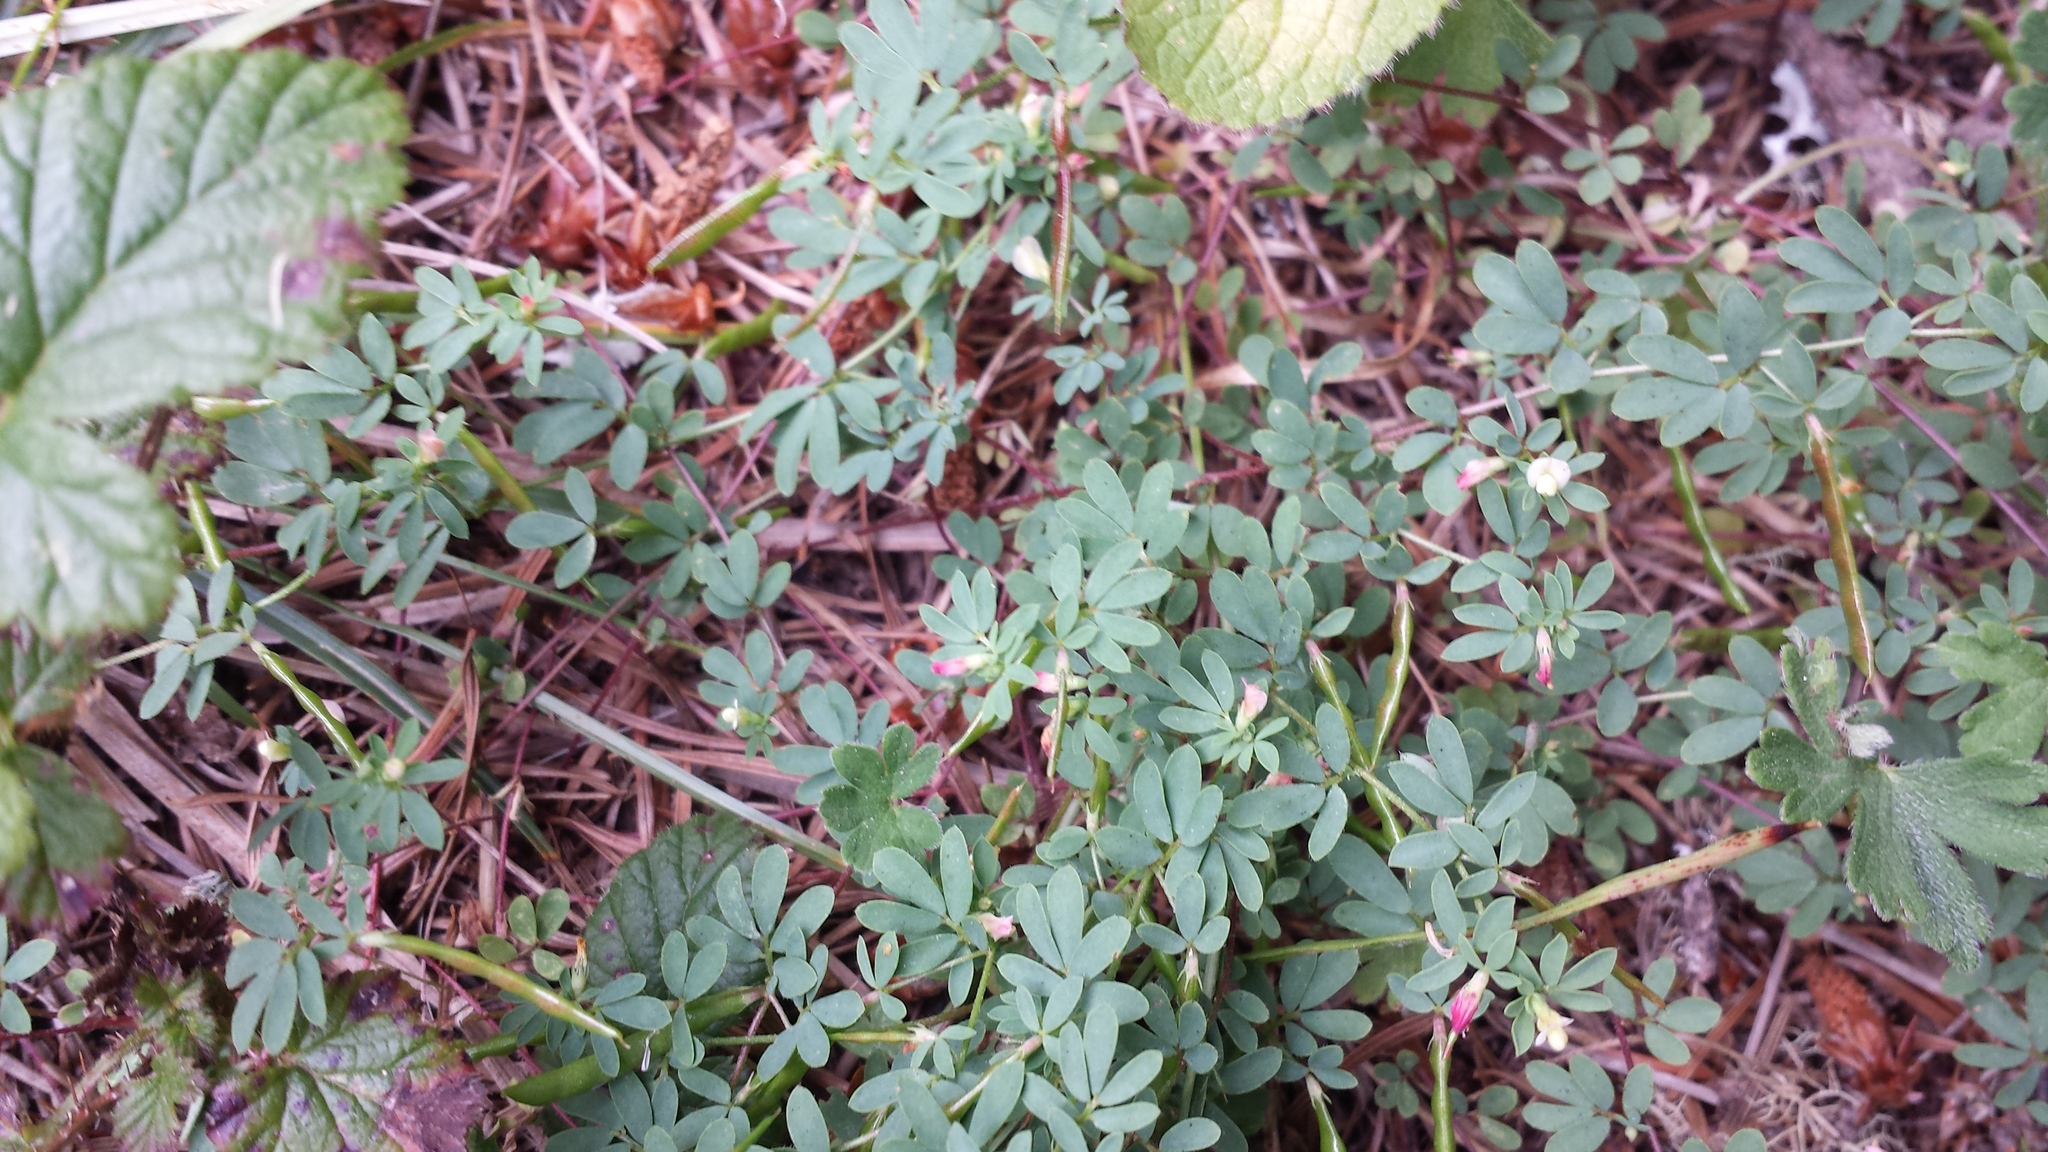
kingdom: Plantae
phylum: Tracheophyta
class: Magnoliopsida
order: Fabales
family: Fabaceae
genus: Acmispon
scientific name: Acmispon parviflorus
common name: Desert deer-vetch
